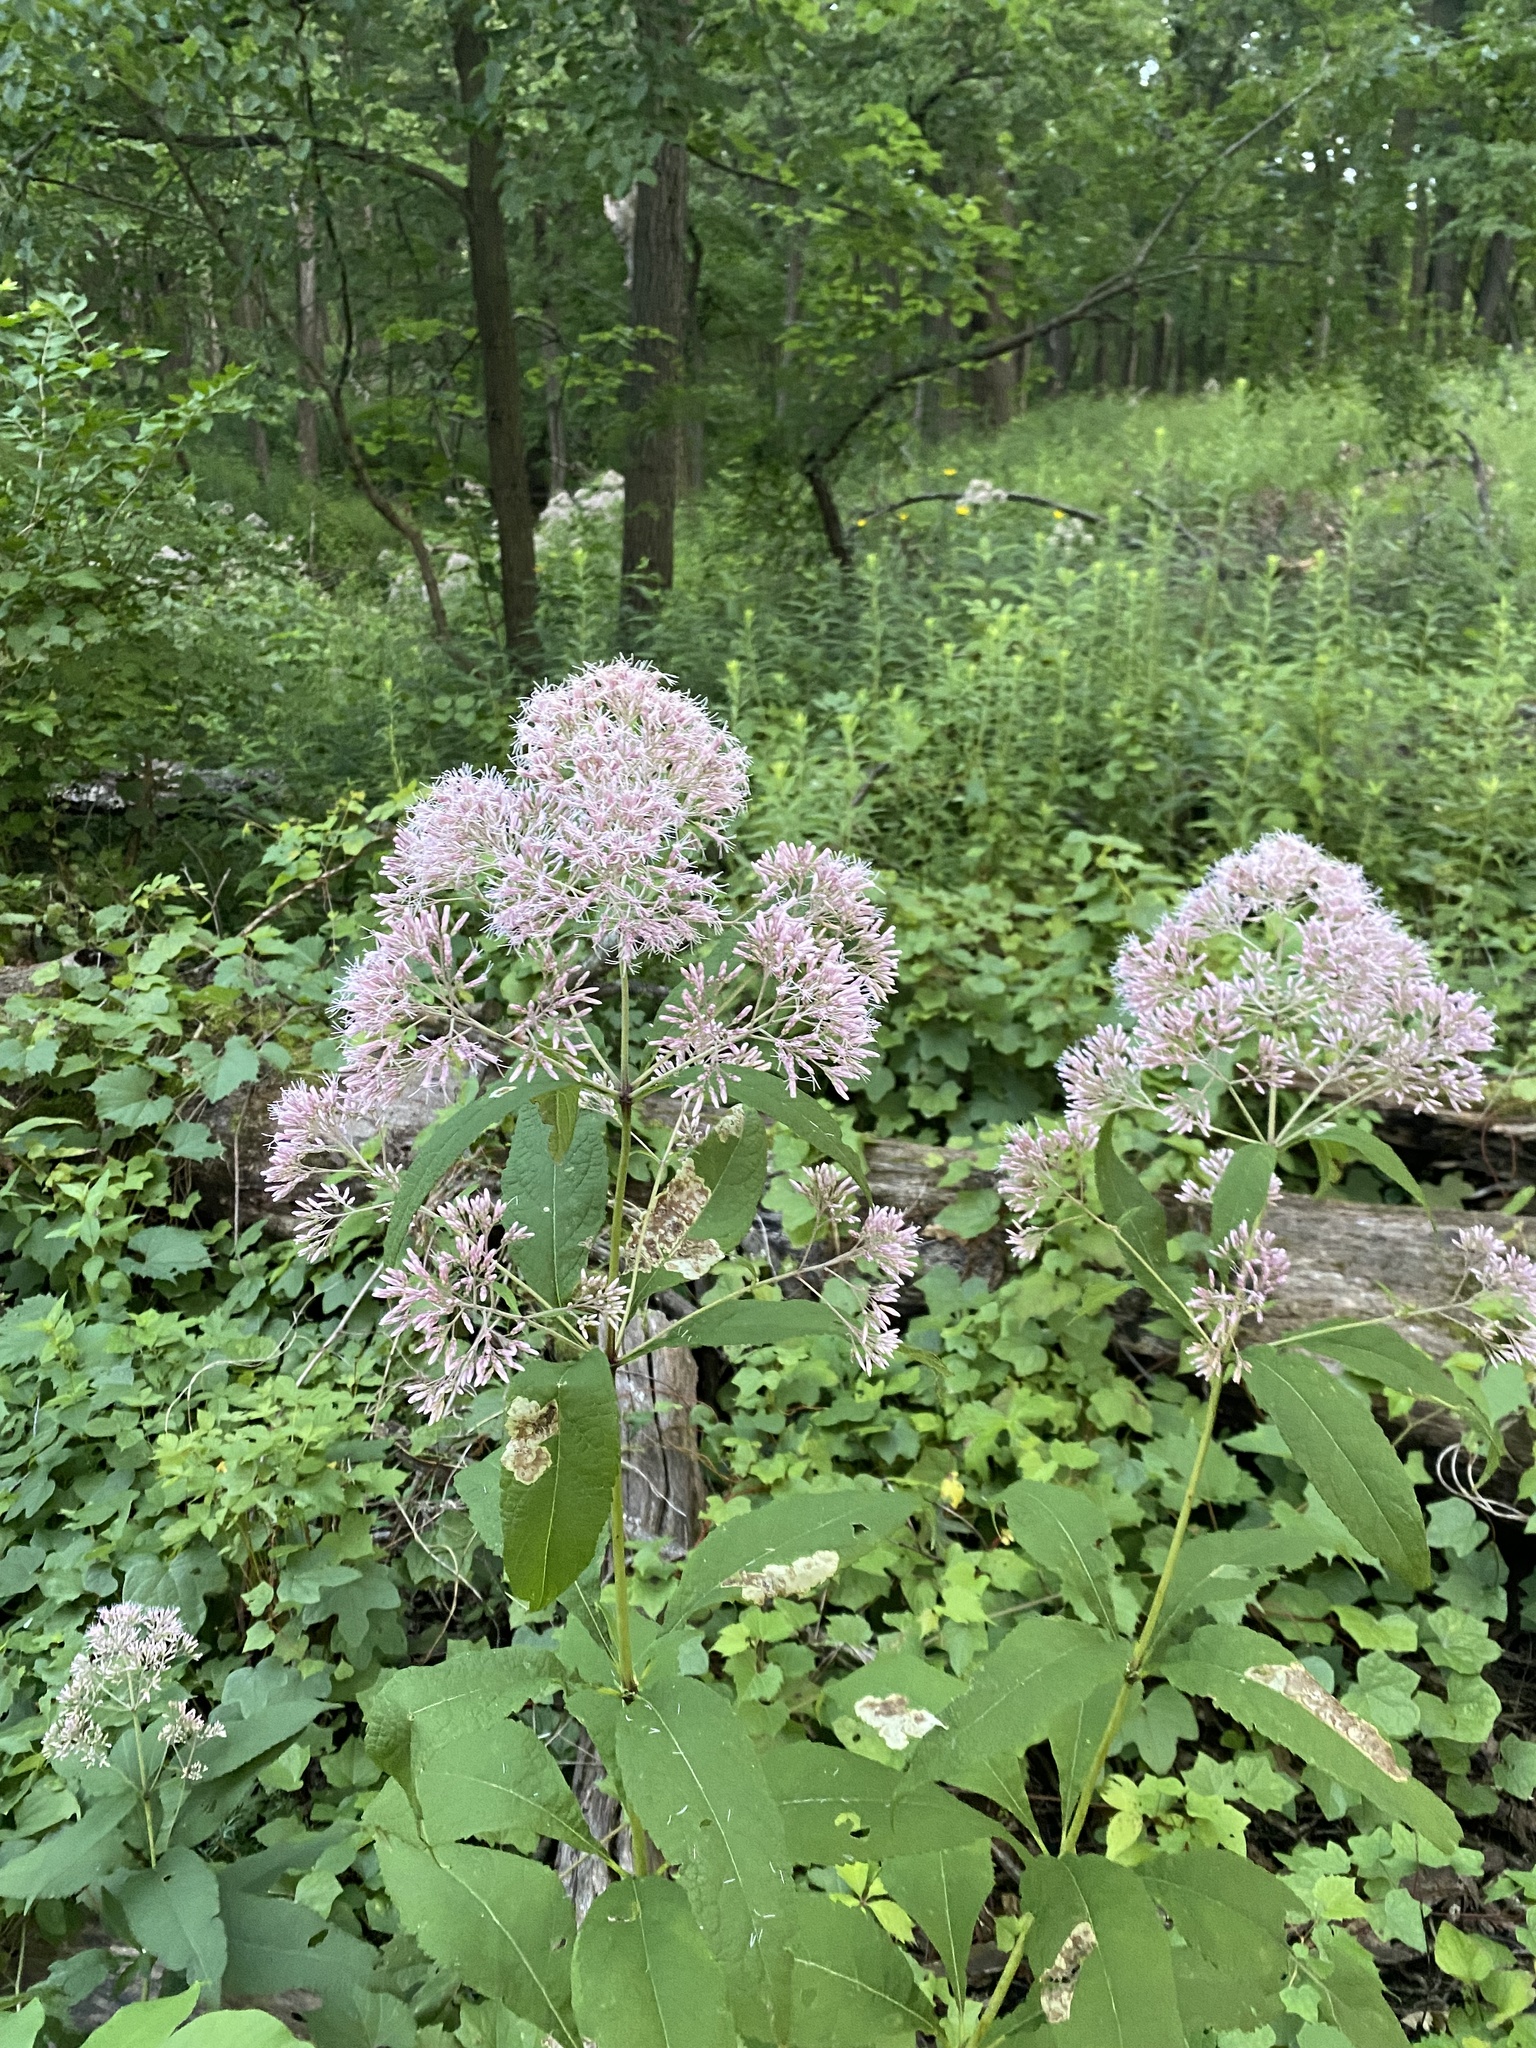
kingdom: Plantae
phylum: Tracheophyta
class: Magnoliopsida
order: Asterales
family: Asteraceae
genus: Eutrochium
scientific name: Eutrochium purpureum
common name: Gravelroot
